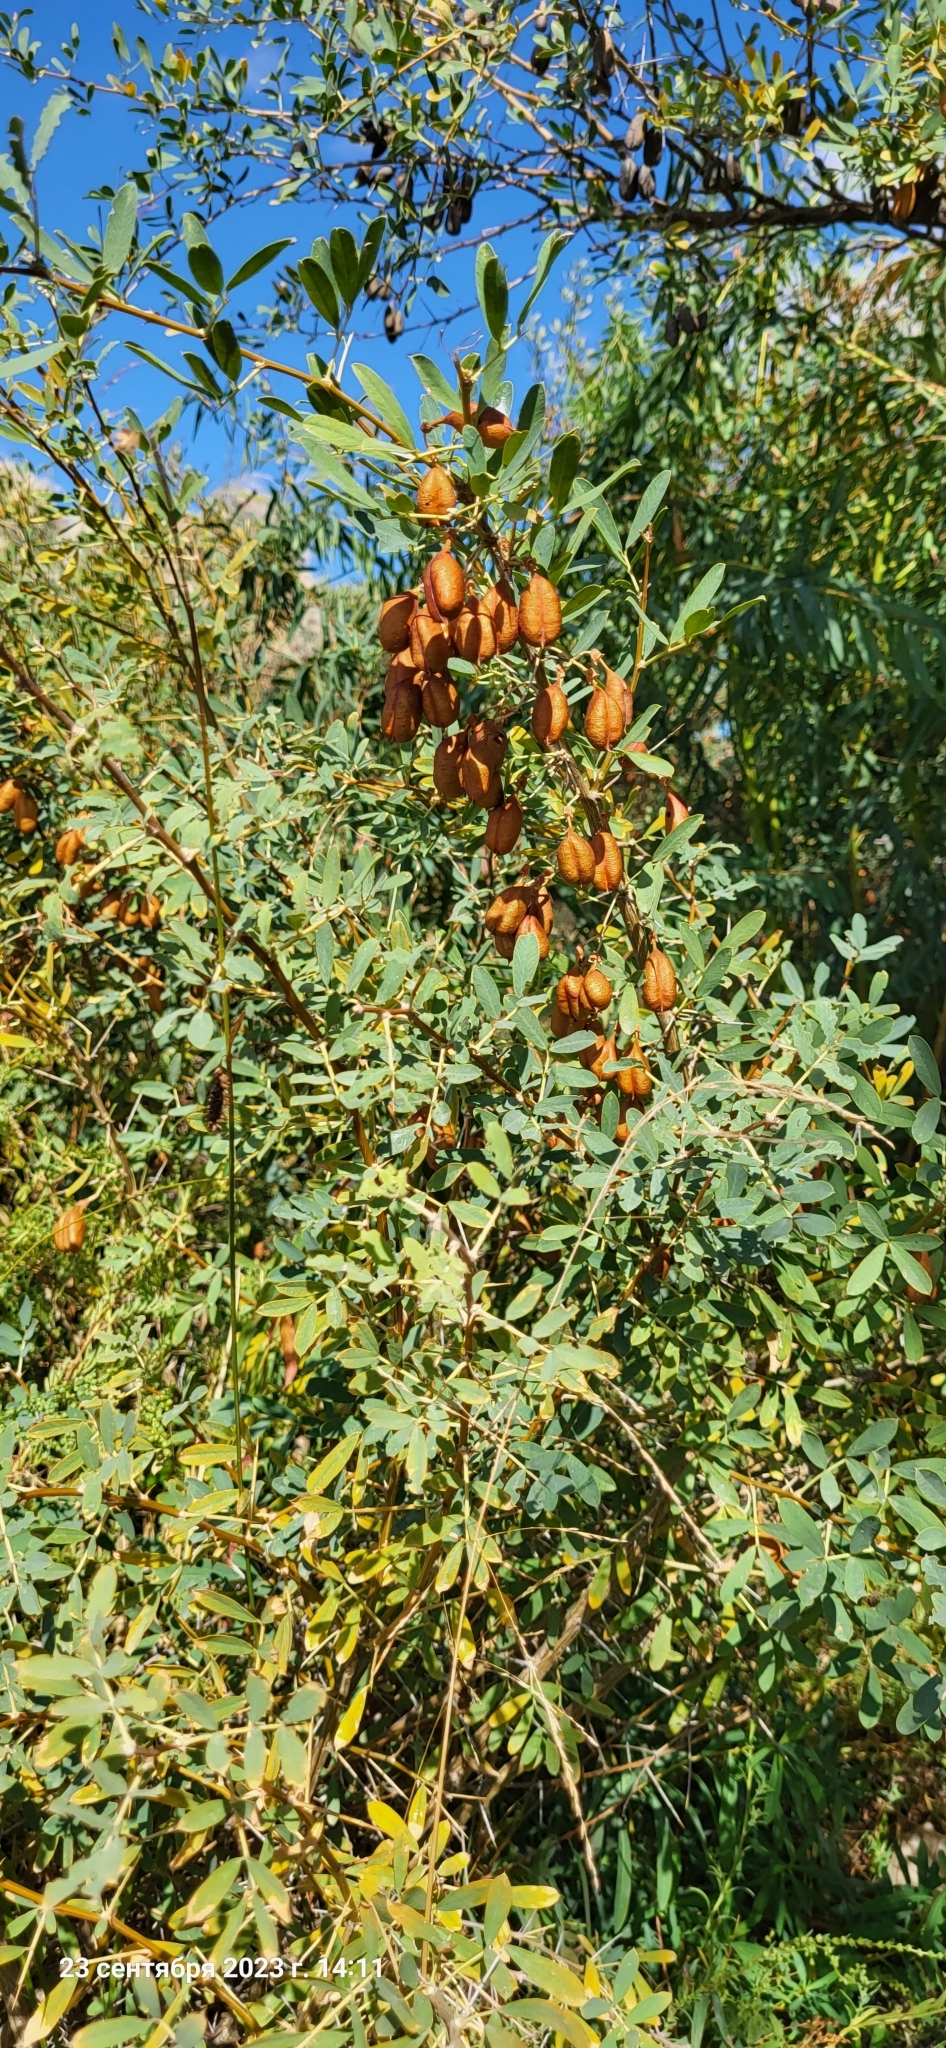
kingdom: Plantae
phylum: Tracheophyta
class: Magnoliopsida
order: Fabales
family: Fabaceae
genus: Caragana
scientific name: Caragana halodendron
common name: Siberian salt-tree
